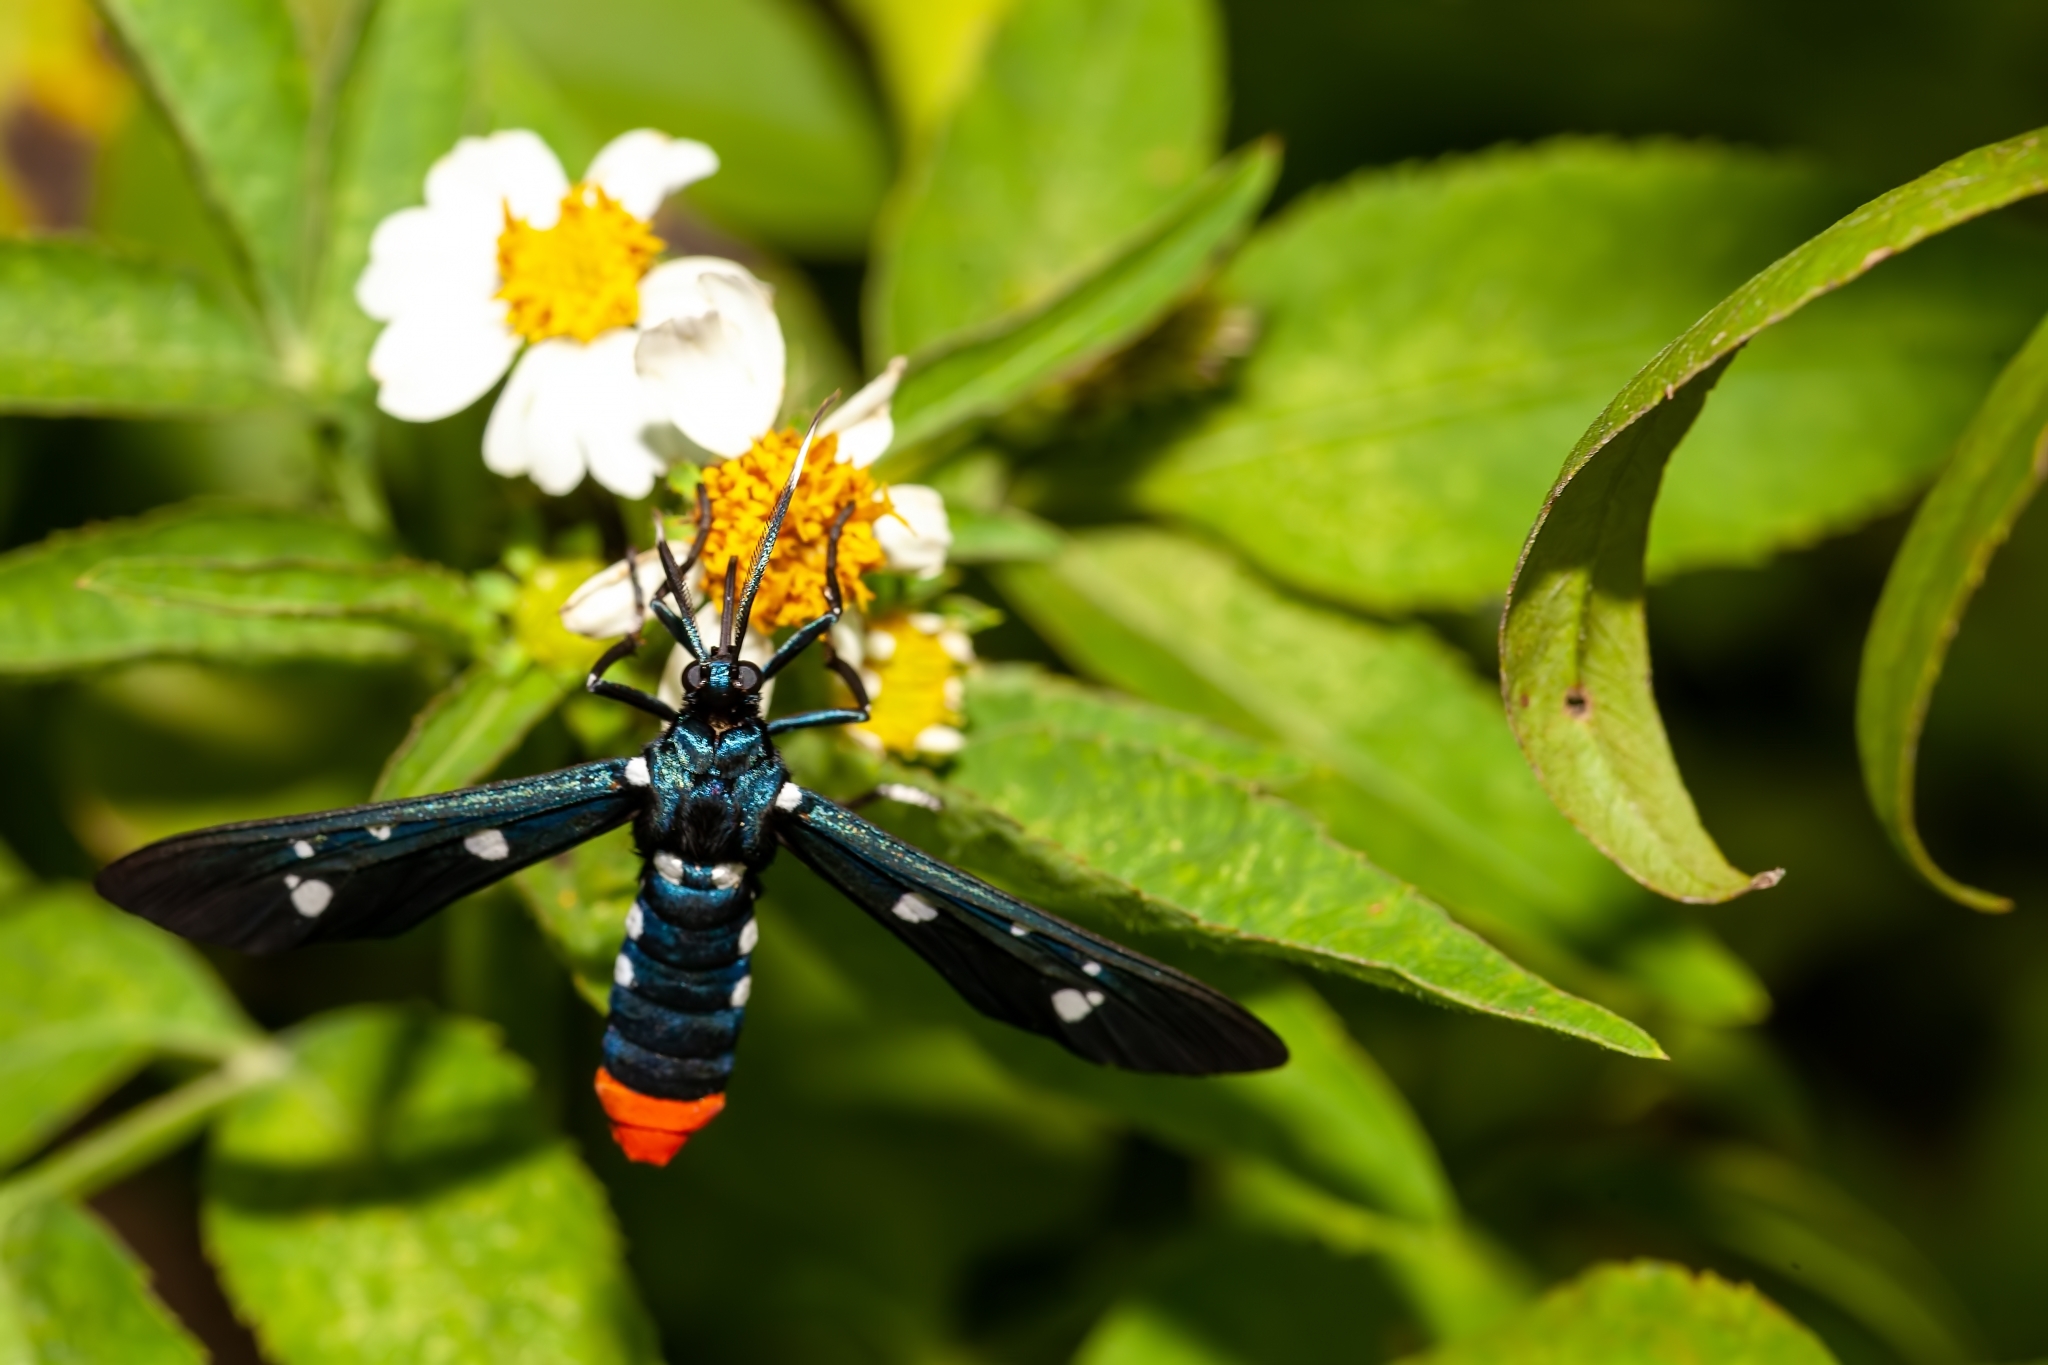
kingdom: Animalia
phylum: Arthropoda
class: Insecta
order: Lepidoptera
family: Erebidae
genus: Syntomeida
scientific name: Syntomeida epilais
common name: Polka-dot wasp moth
